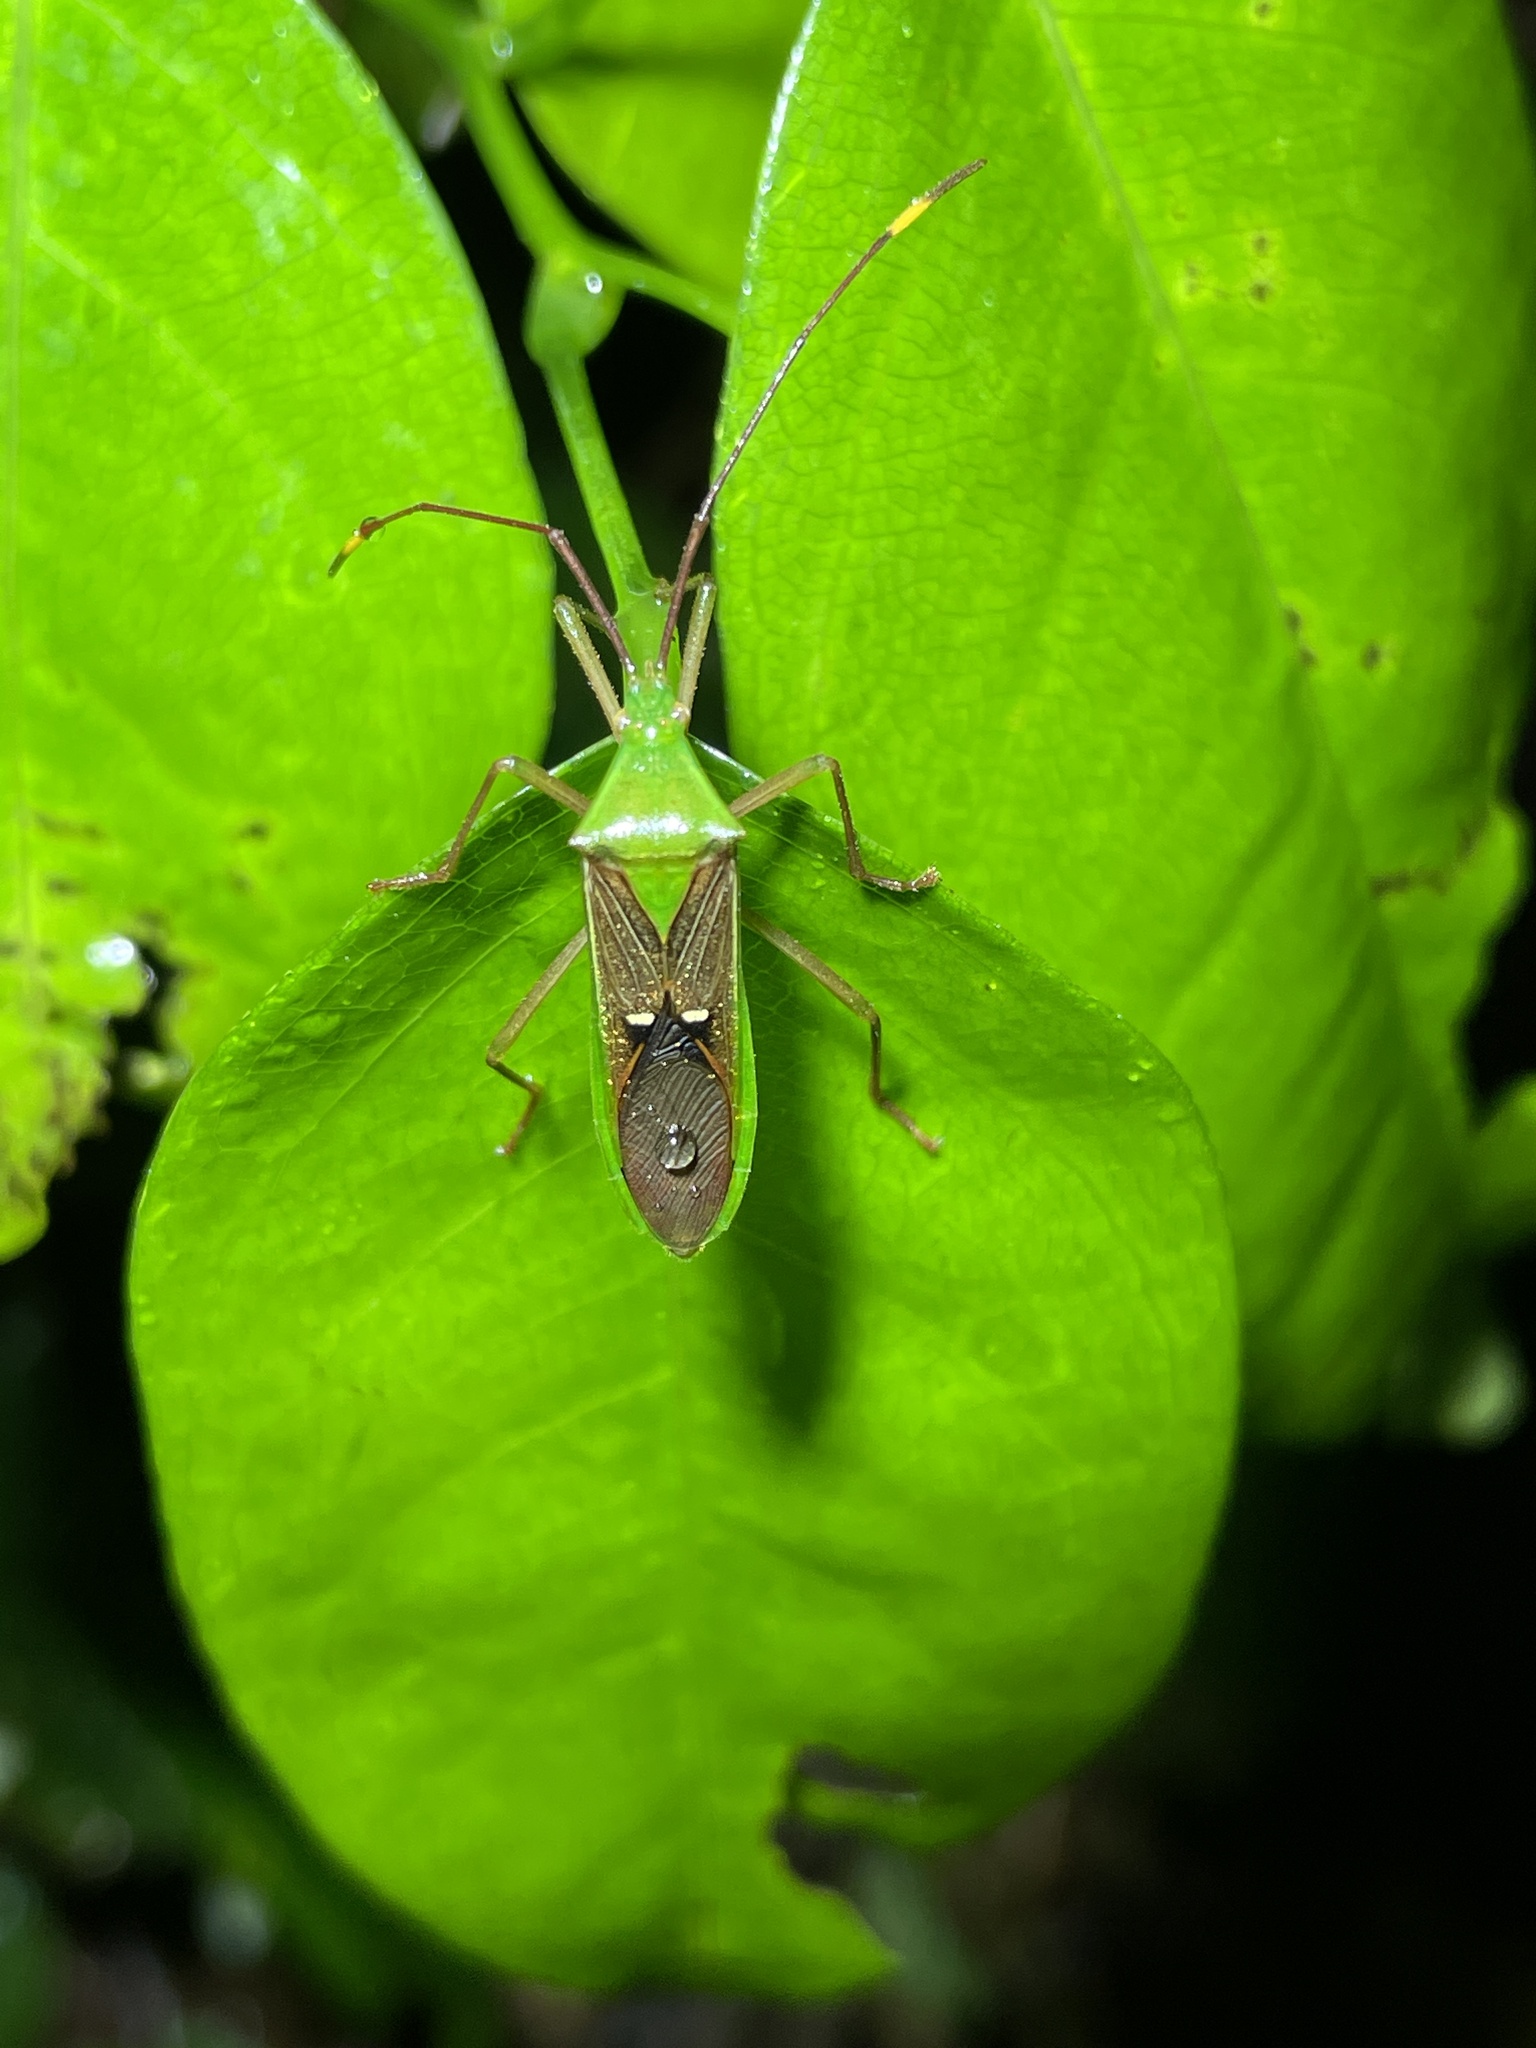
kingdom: Animalia
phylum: Arthropoda
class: Insecta
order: Hemiptera
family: Coreidae
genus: Homoeocerus
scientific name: Homoeocerus bipunctatus
